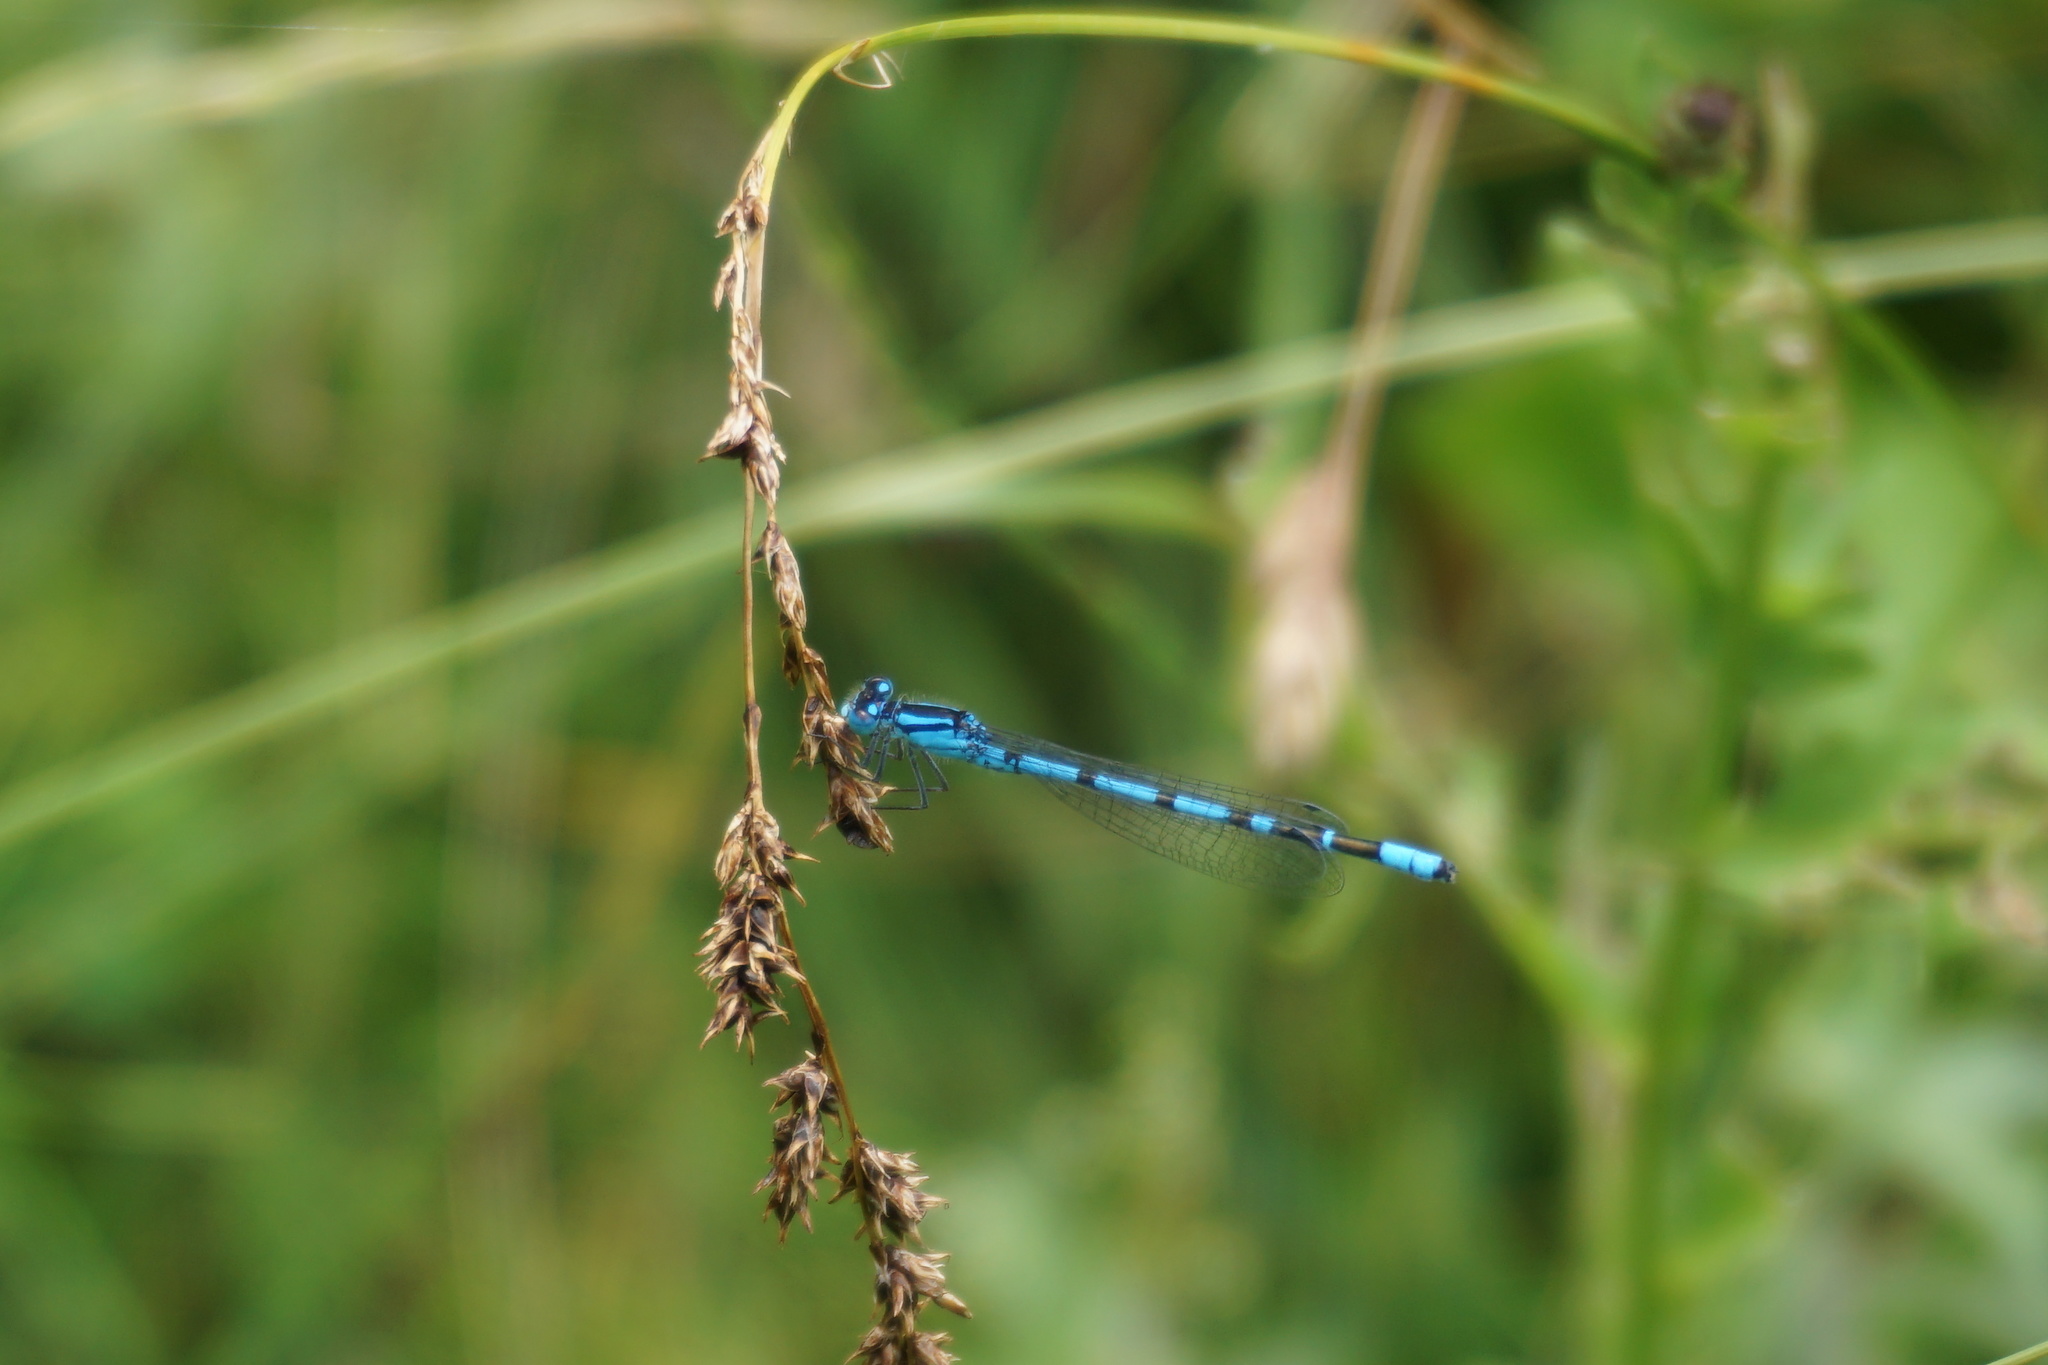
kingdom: Animalia
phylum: Arthropoda
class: Insecta
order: Odonata
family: Coenagrionidae
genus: Enallagma
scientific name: Enallagma cyathigerum
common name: Common blue damselfly
